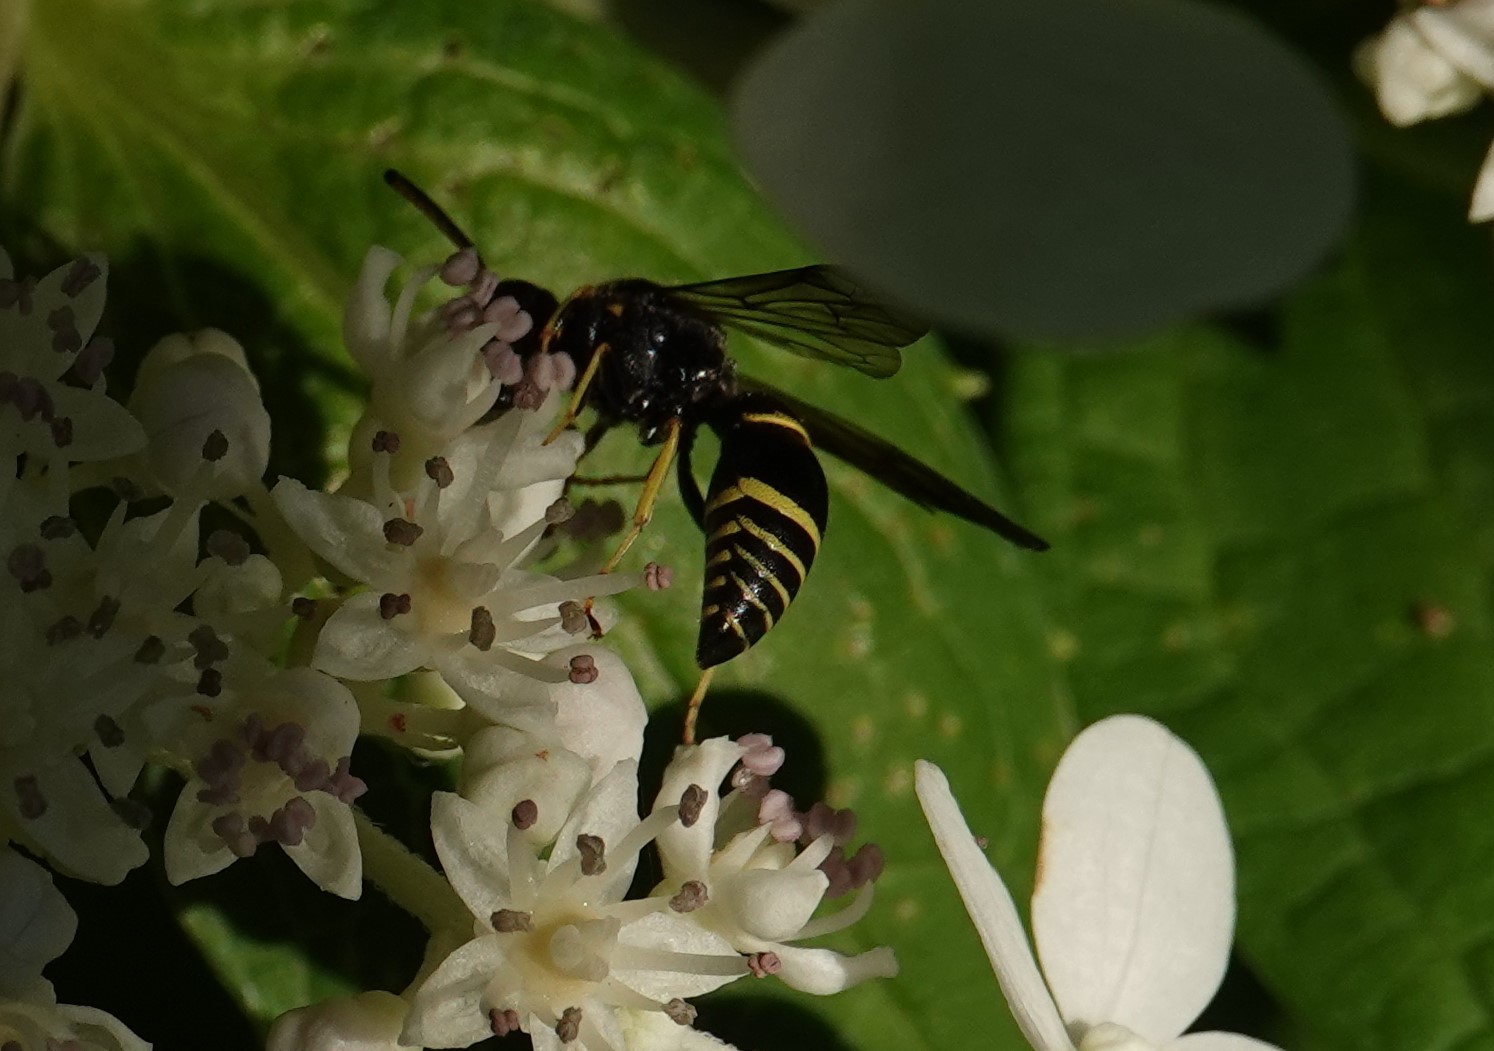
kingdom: Animalia
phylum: Arthropoda
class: Insecta
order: Hymenoptera
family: Vespidae
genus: Ancistrocerus
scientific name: Ancistrocerus
